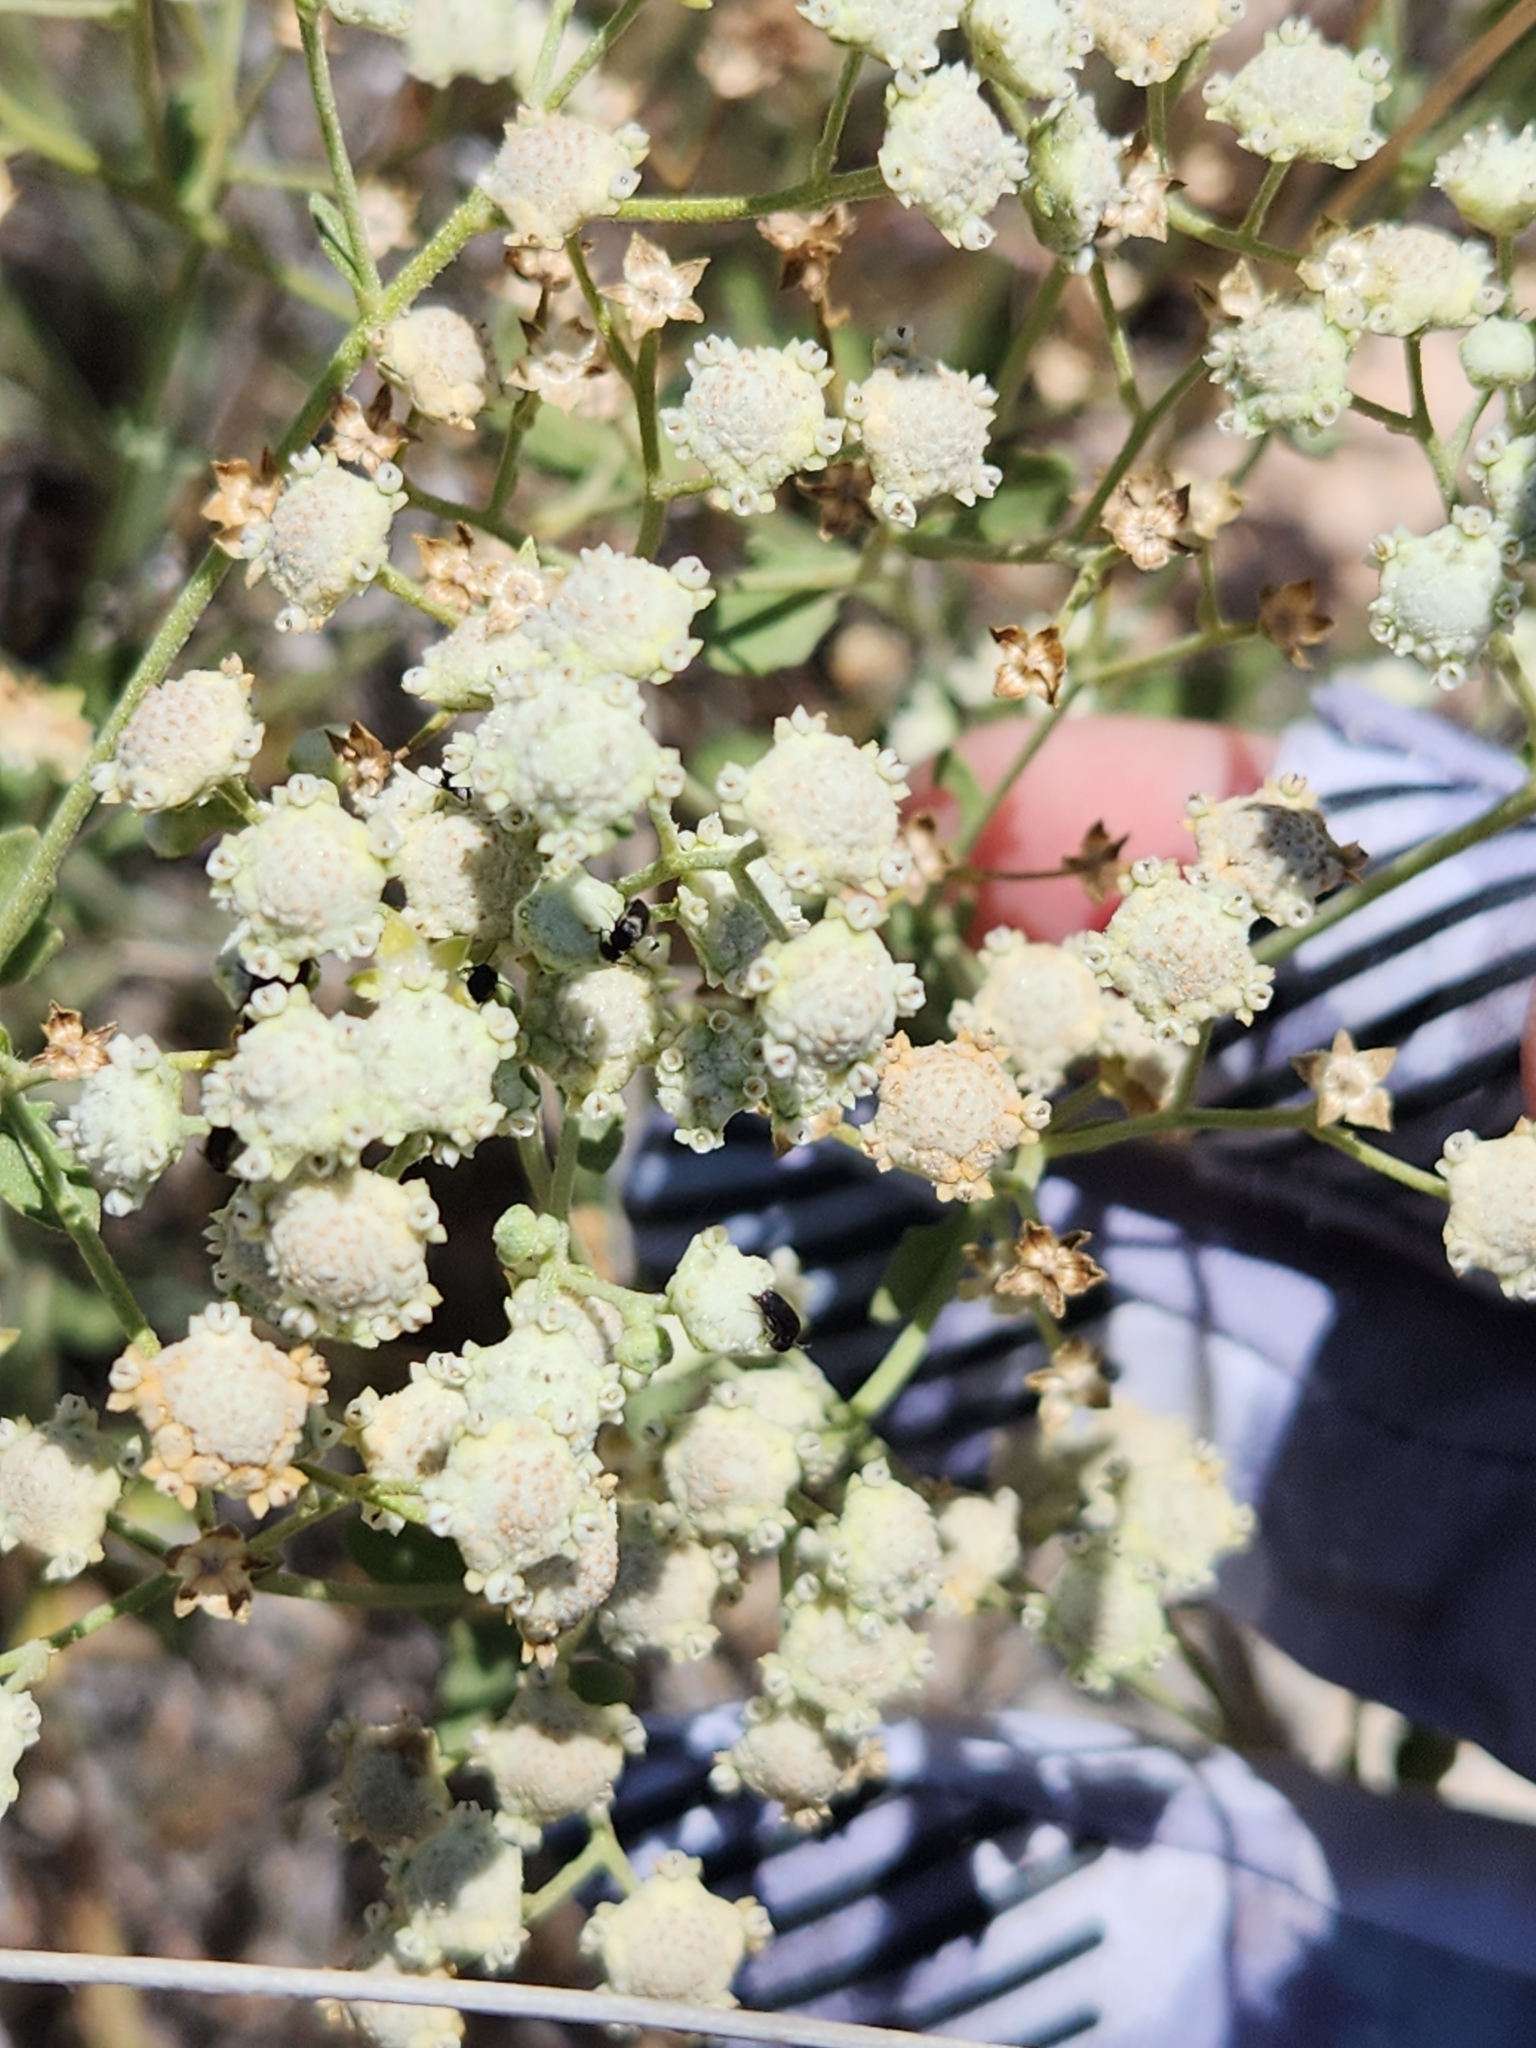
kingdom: Plantae
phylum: Tracheophyta
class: Magnoliopsida
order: Asterales
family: Asteraceae
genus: Parthenium
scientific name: Parthenium confertum
